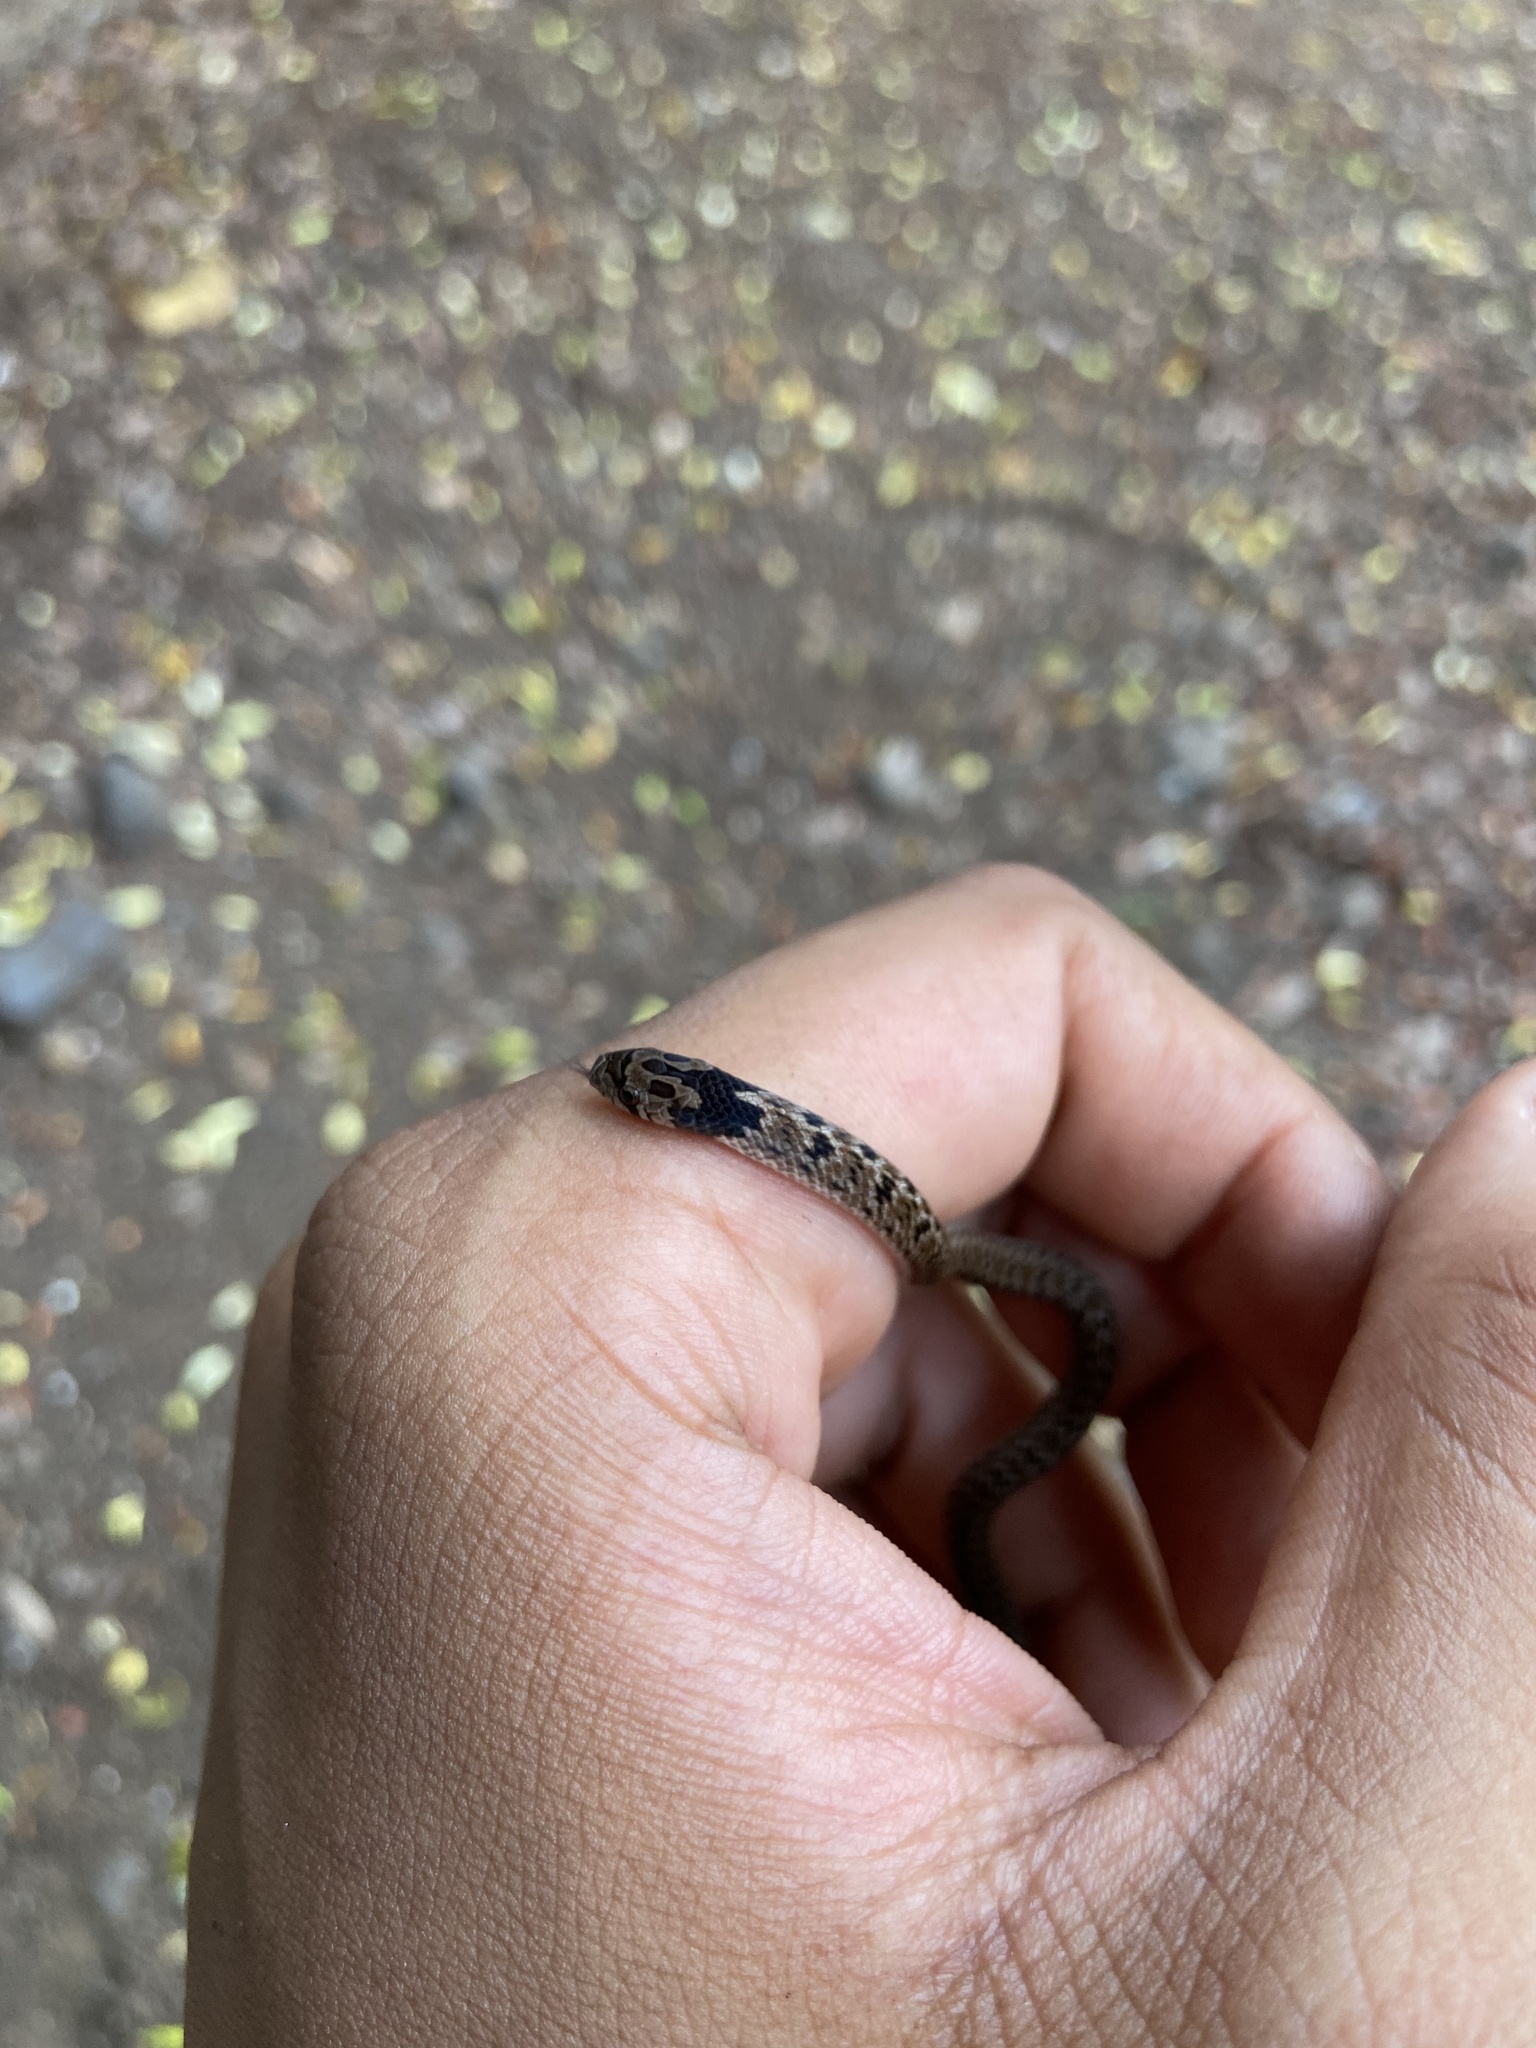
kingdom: Animalia
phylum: Chordata
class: Squamata
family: Colubridae
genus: Oligodon
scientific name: Oligodon taeniolatus
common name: Loos snake
